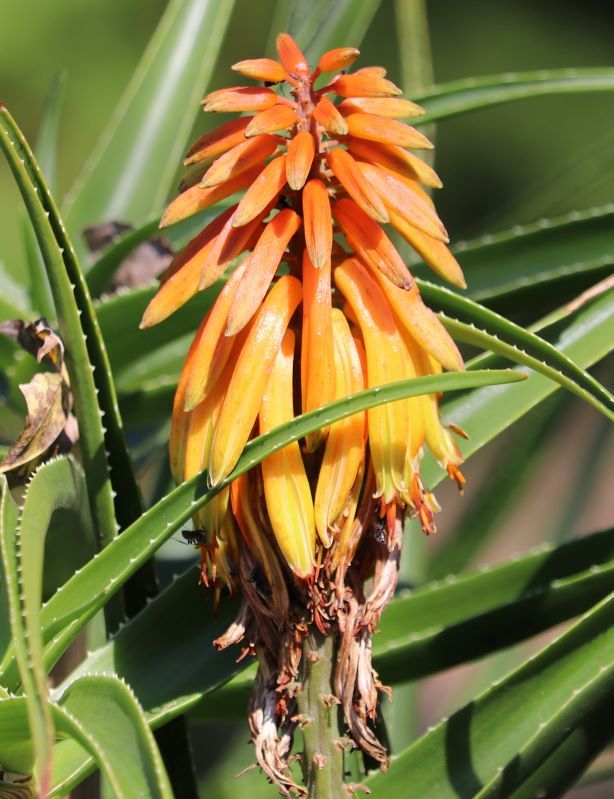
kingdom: Plantae
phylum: Tracheophyta
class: Liliopsida
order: Asparagales
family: Asphodelaceae
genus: Aloiampelos
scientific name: Aloiampelos striatula
